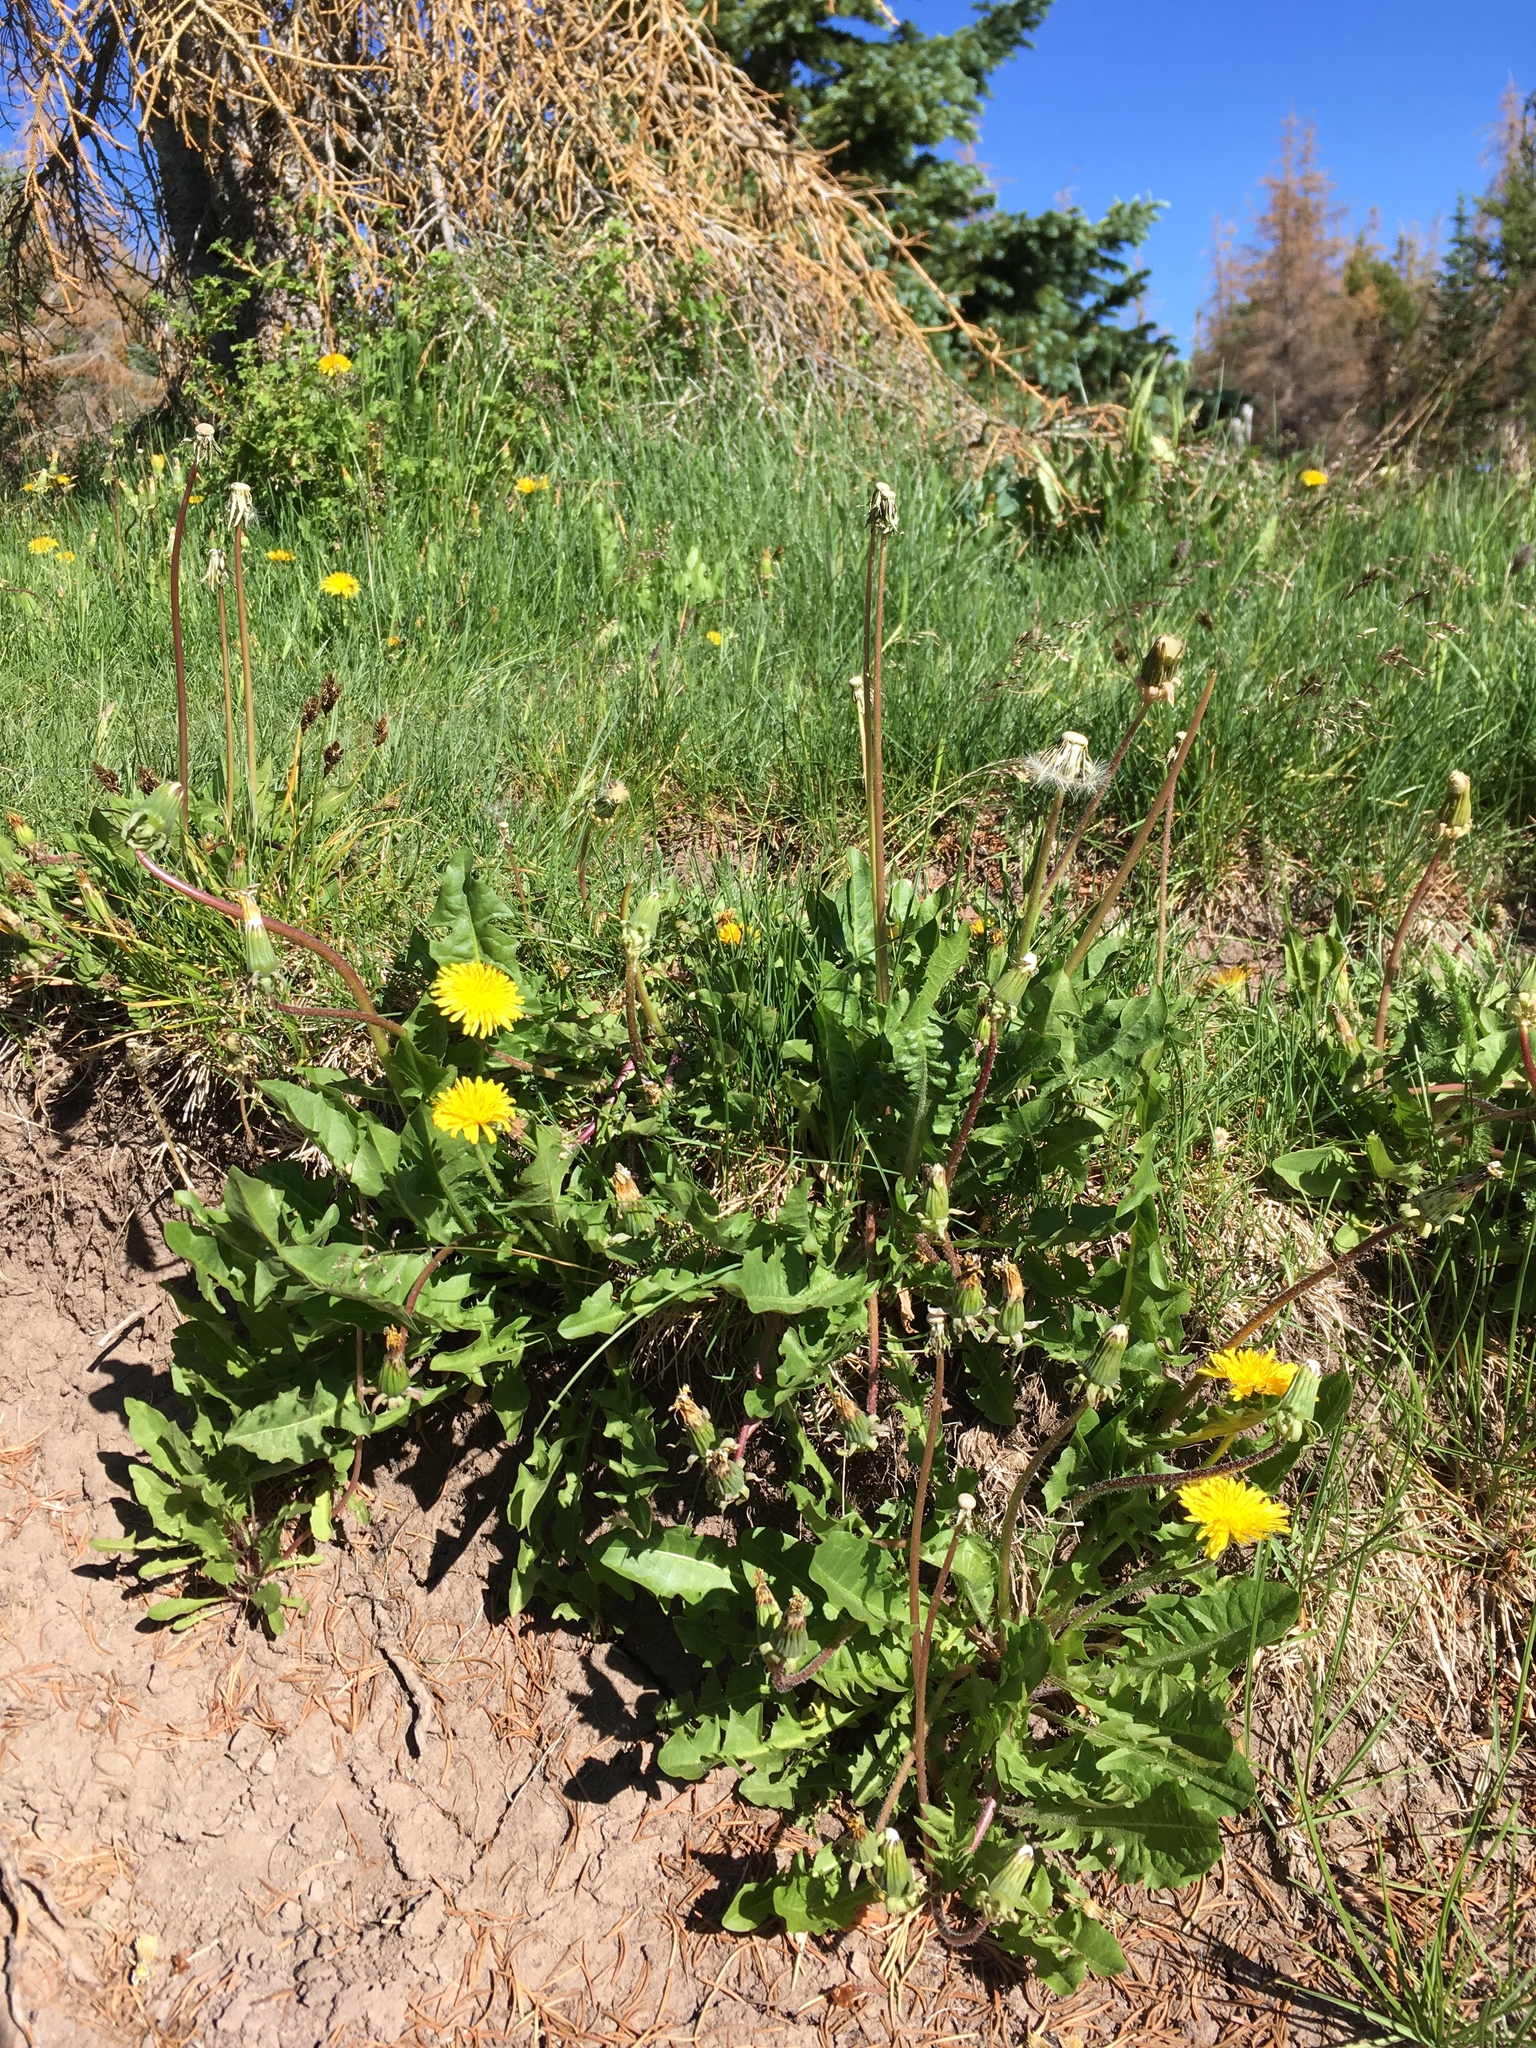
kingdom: Plantae
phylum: Tracheophyta
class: Magnoliopsida
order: Asterales
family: Asteraceae
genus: Taraxacum
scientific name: Taraxacum officinale
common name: Common dandelion
